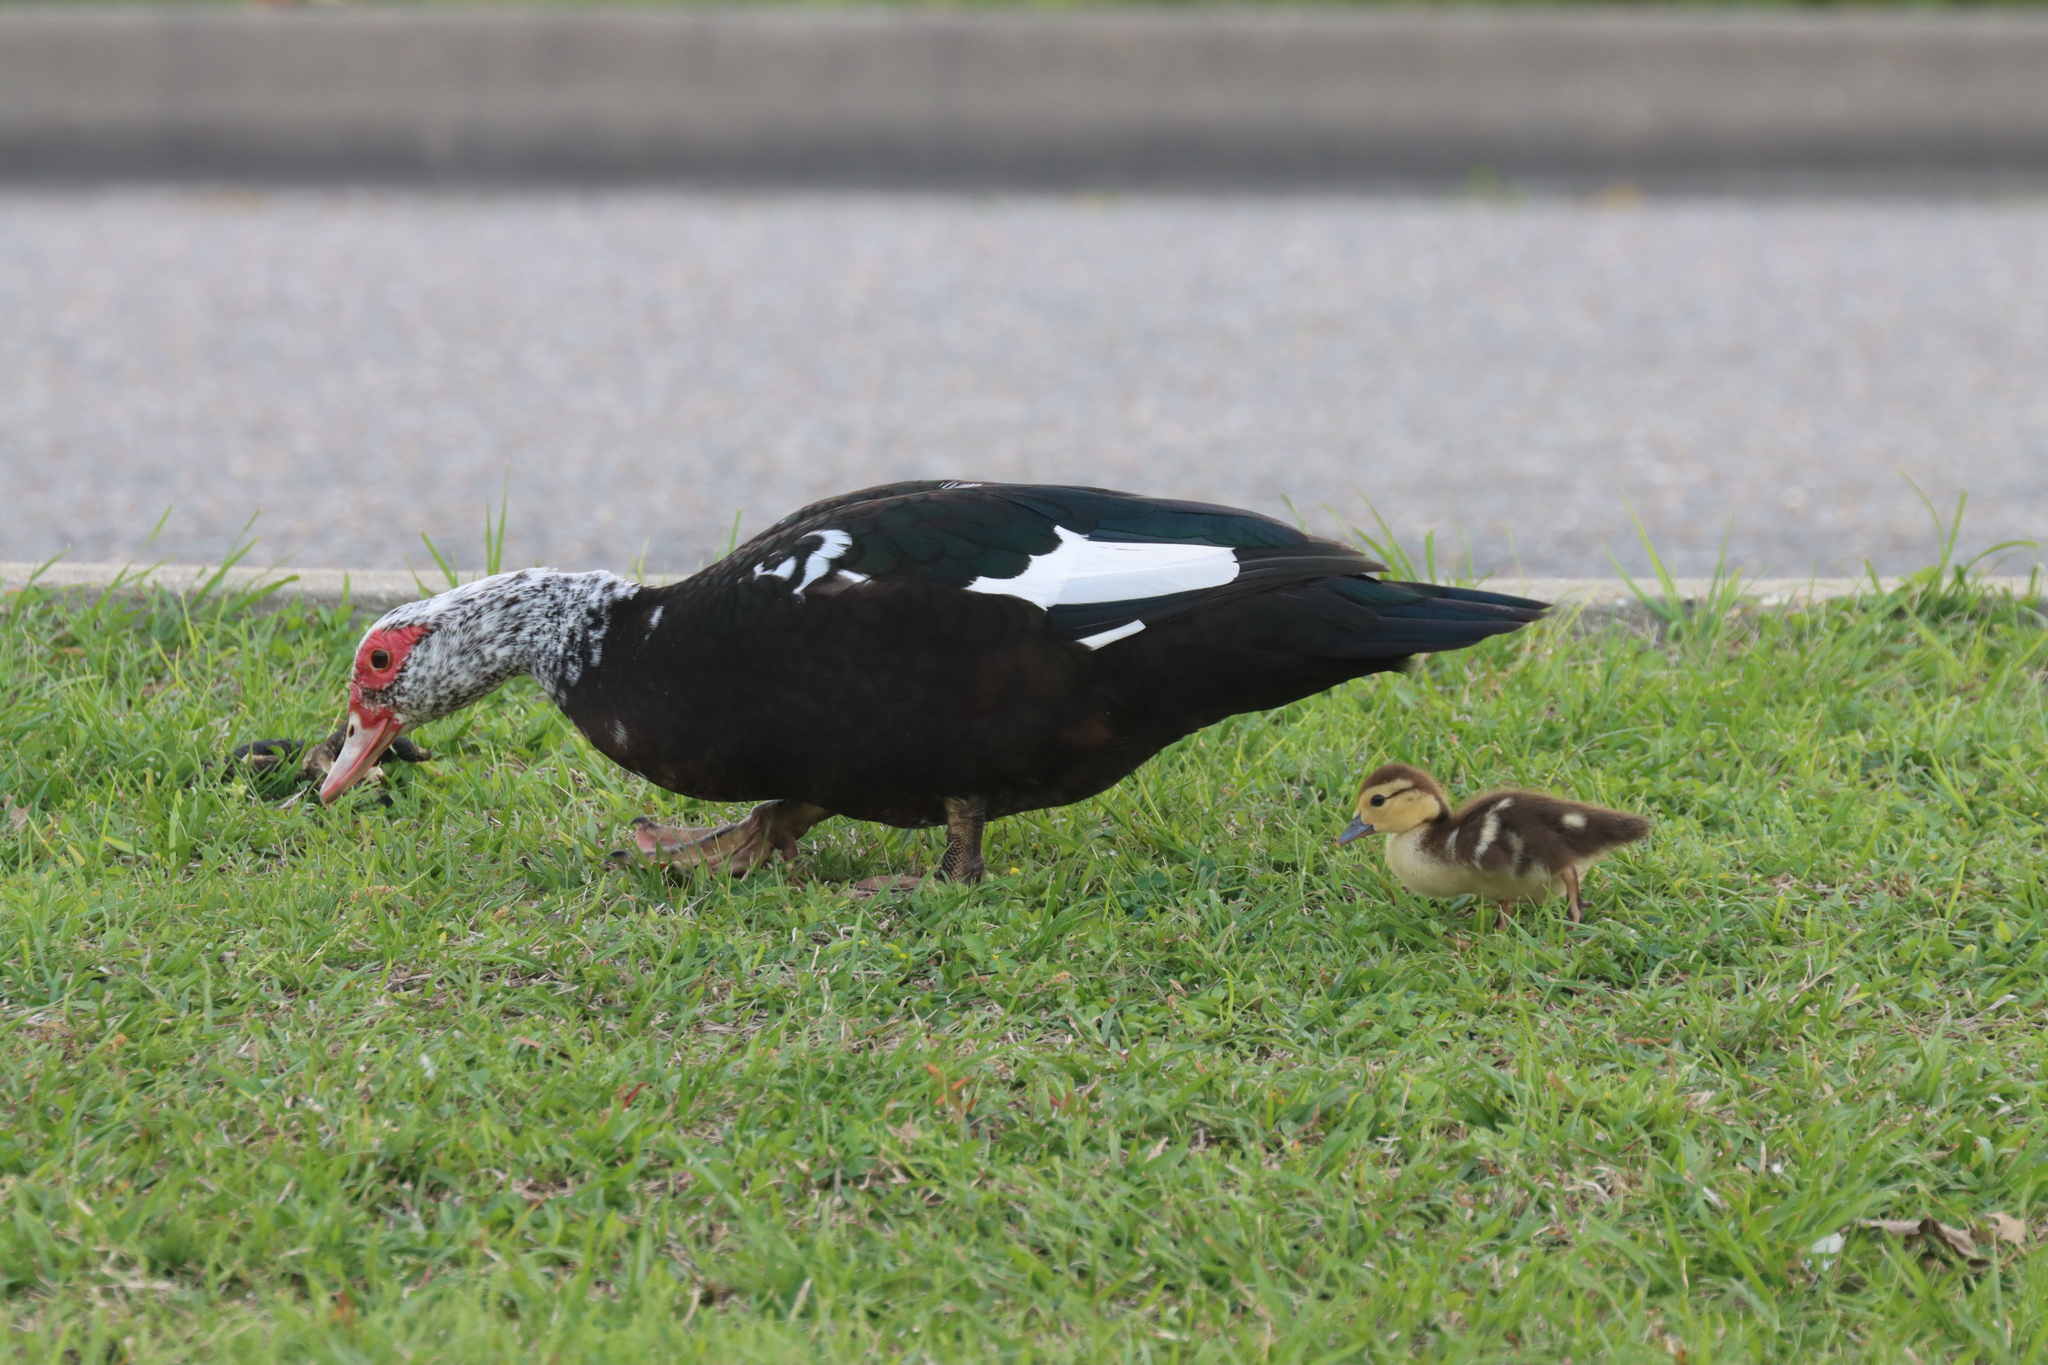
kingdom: Animalia
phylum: Chordata
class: Aves
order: Anseriformes
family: Anatidae
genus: Cairina
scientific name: Cairina moschata
